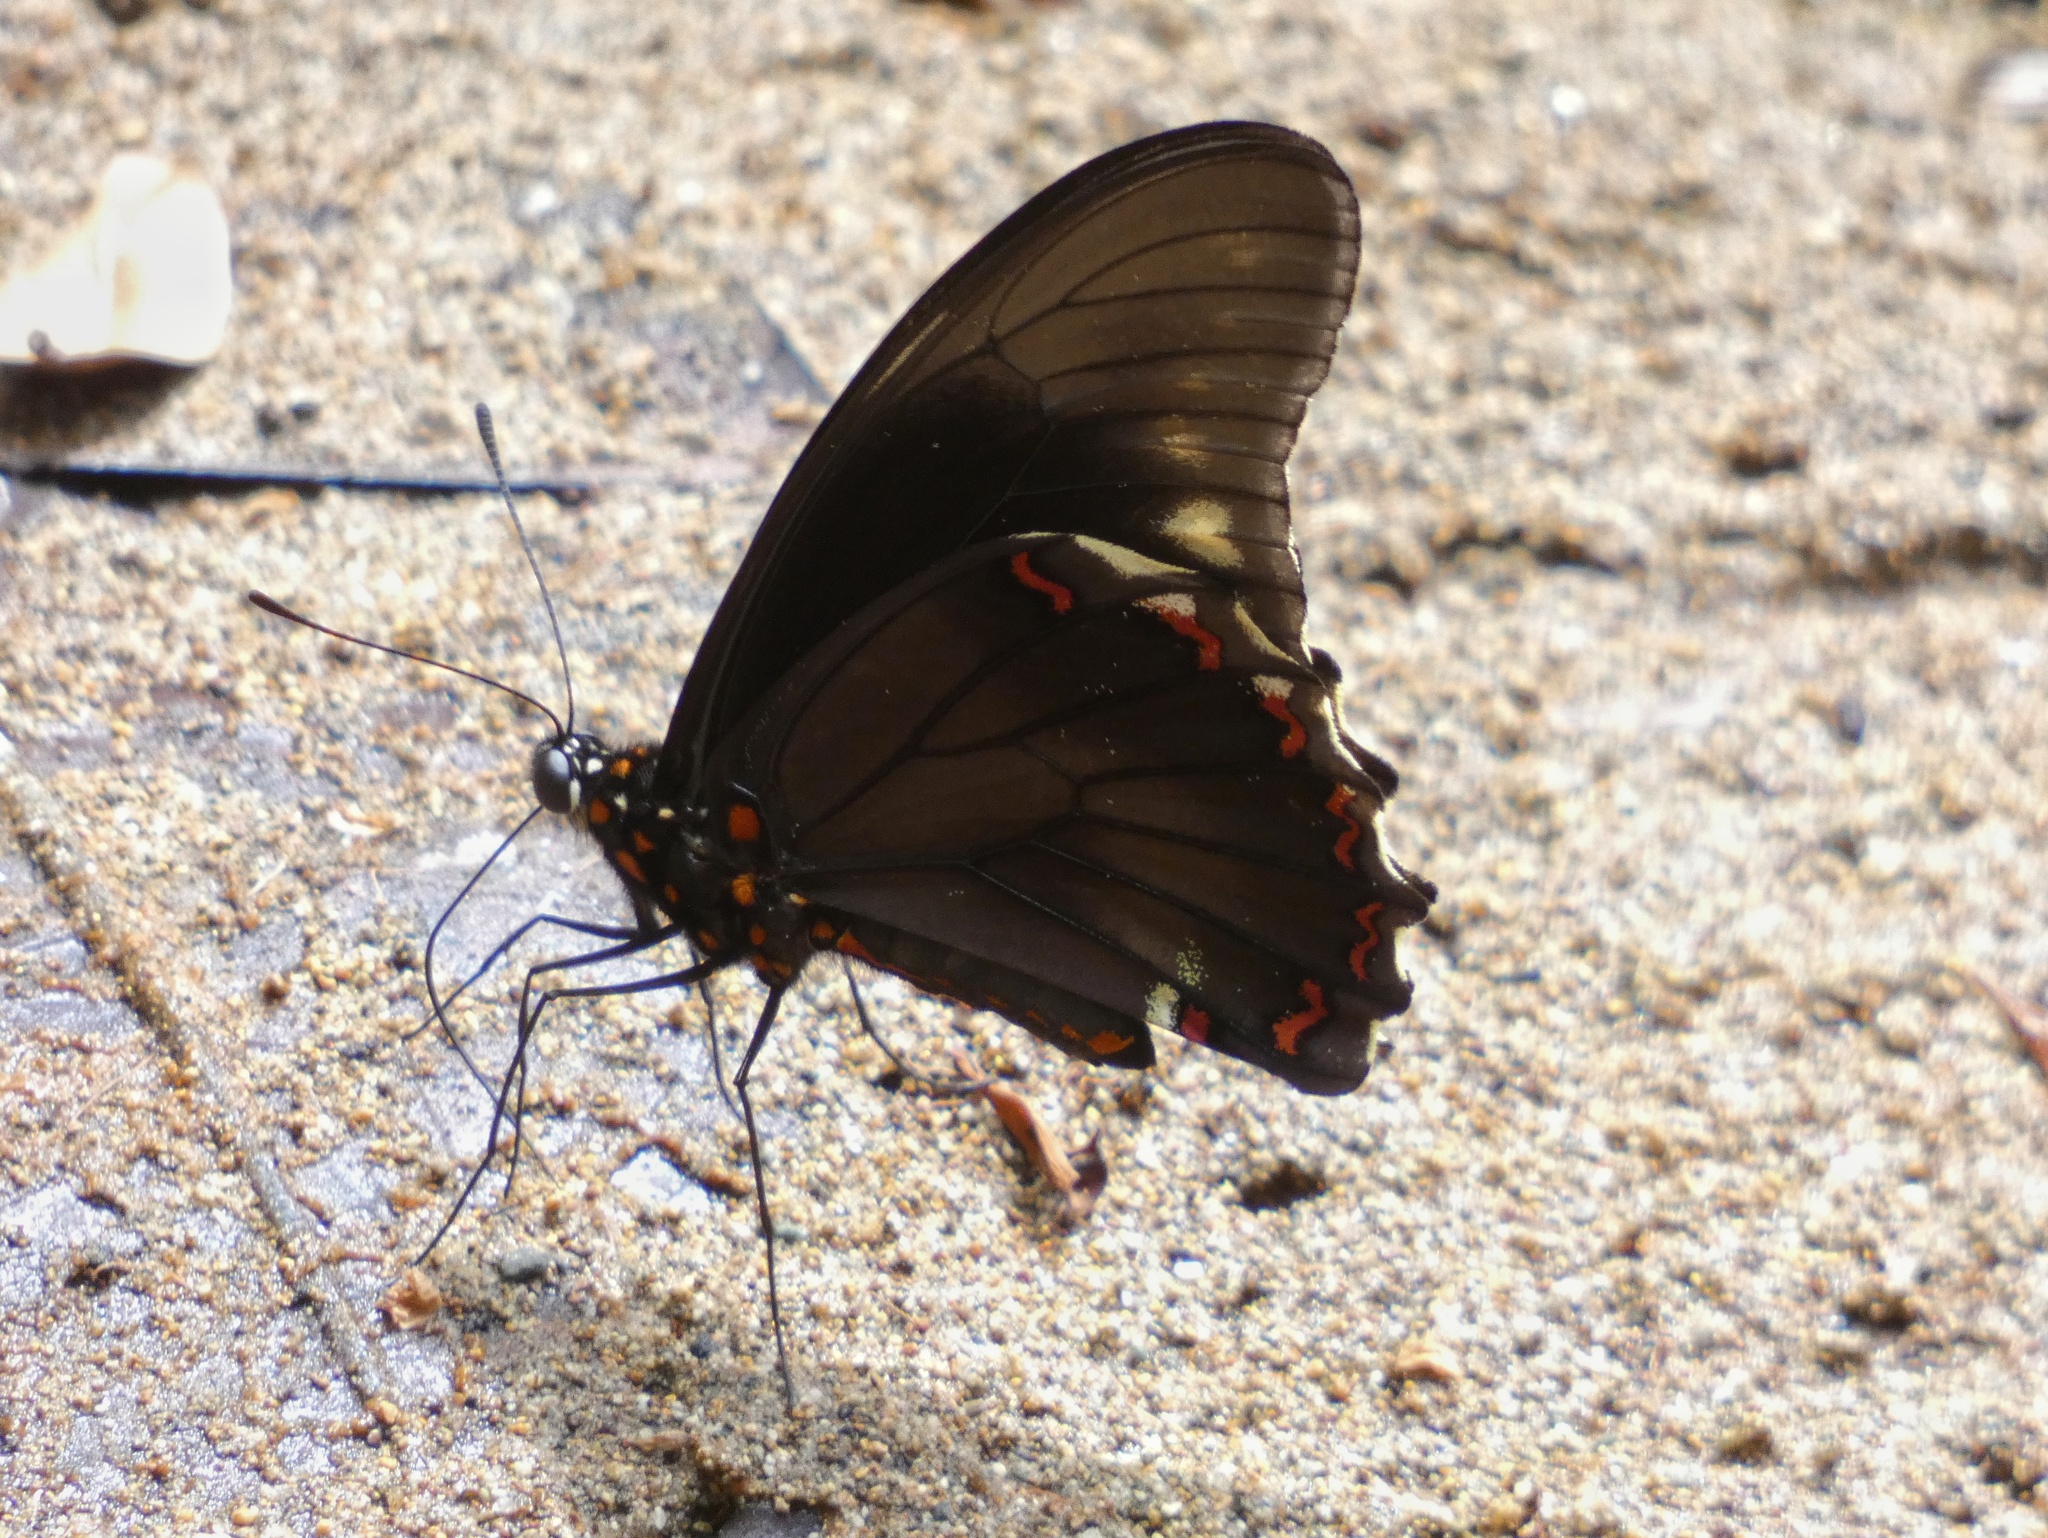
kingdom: Animalia
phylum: Arthropoda
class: Insecta
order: Lepidoptera
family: Papilionidae
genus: Battus
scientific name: Battus polydamas
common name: Polydamas swallowtail
